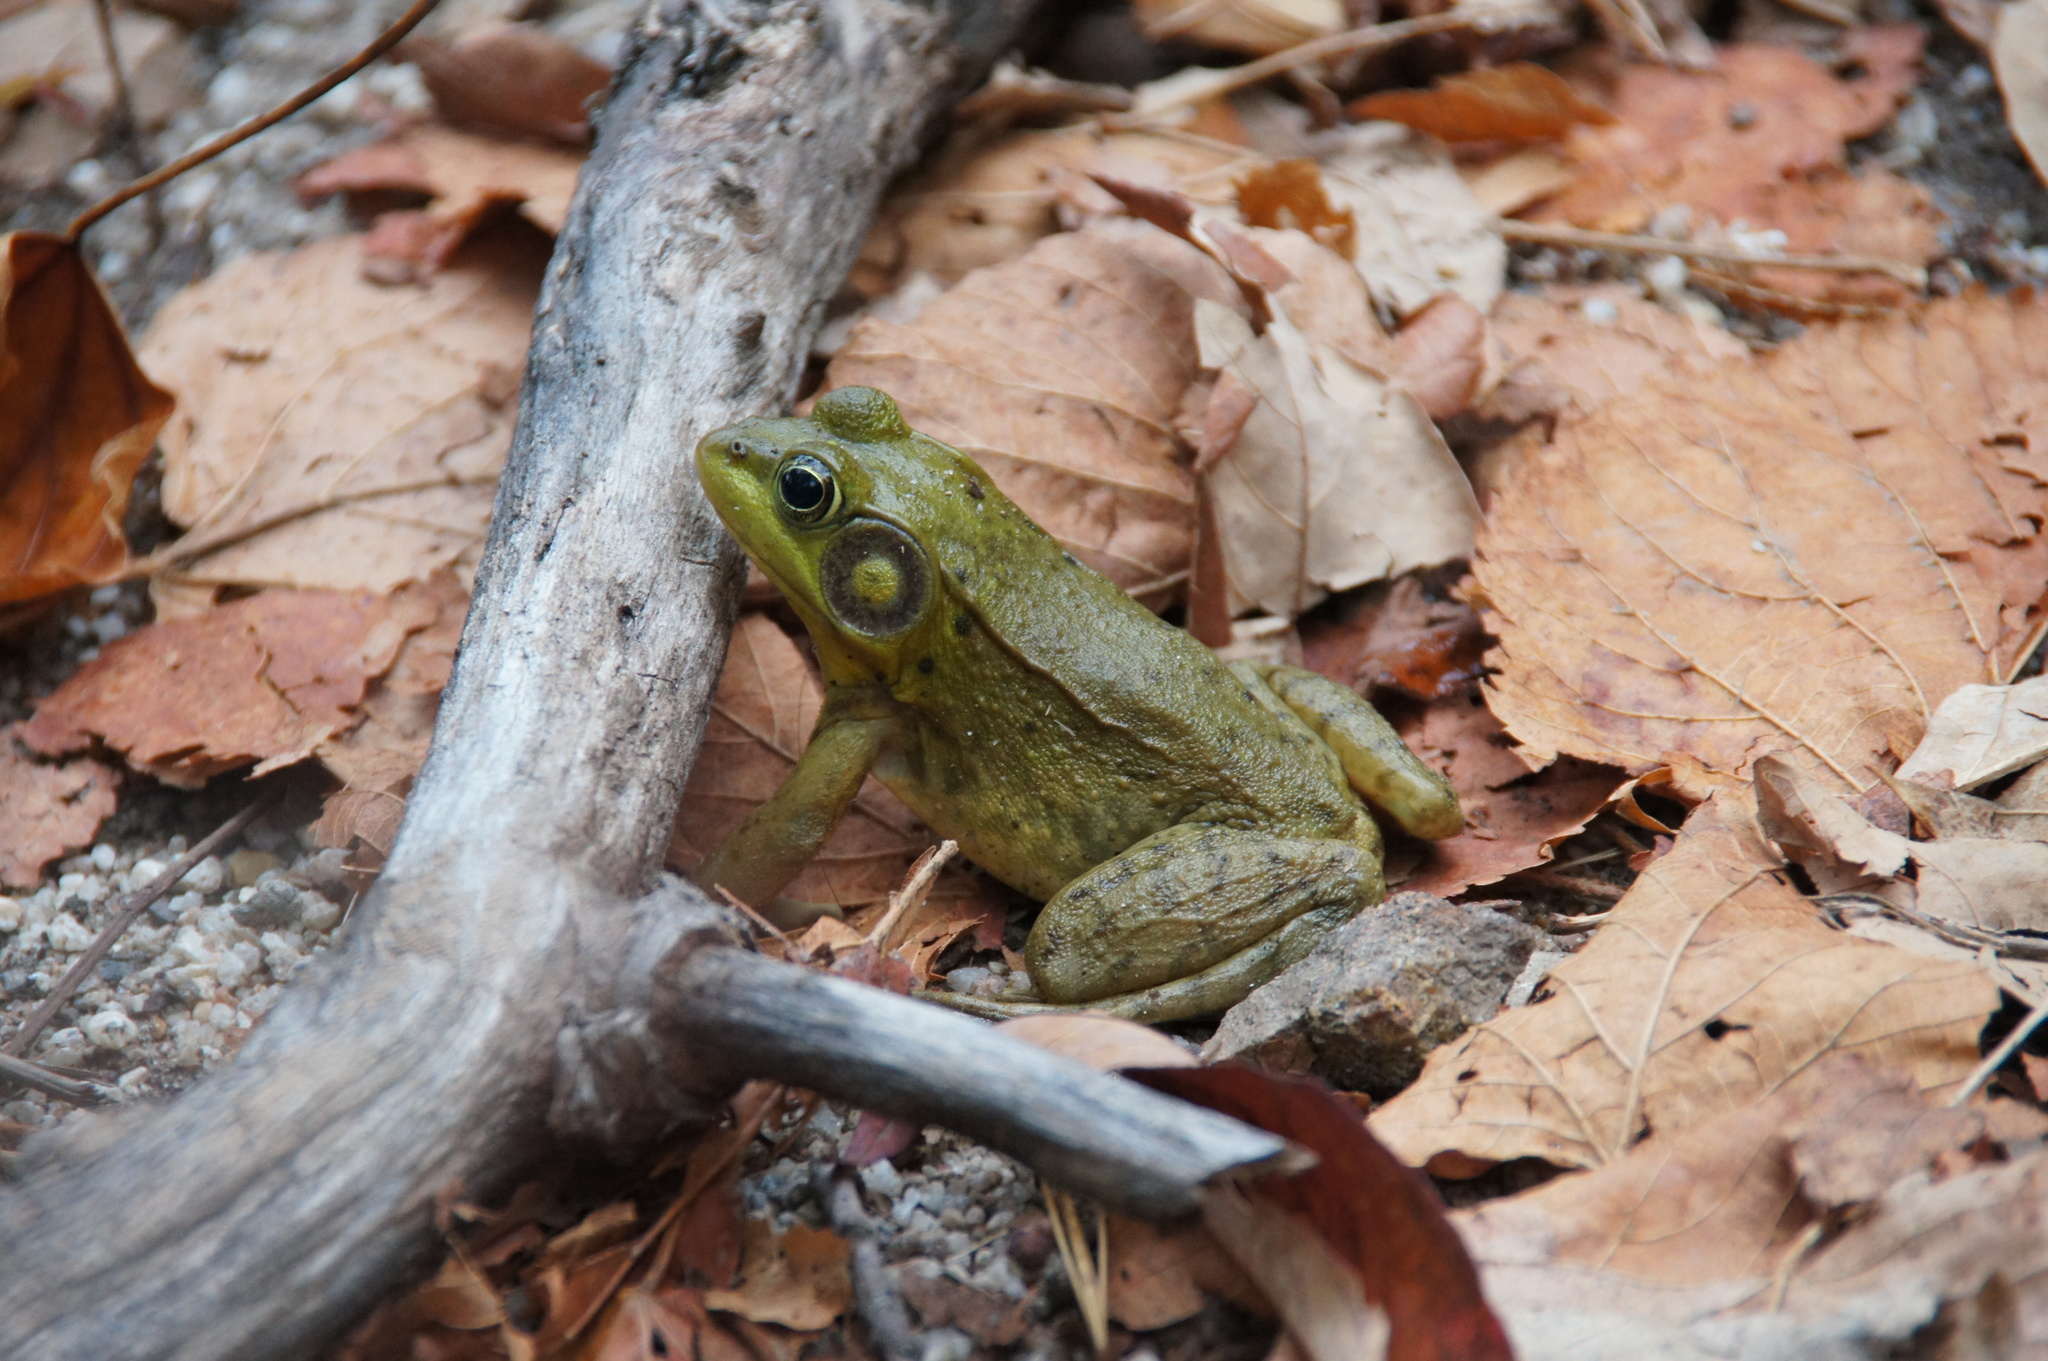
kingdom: Animalia
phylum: Chordata
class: Amphibia
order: Anura
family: Ranidae
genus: Lithobates
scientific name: Lithobates clamitans
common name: Green frog
